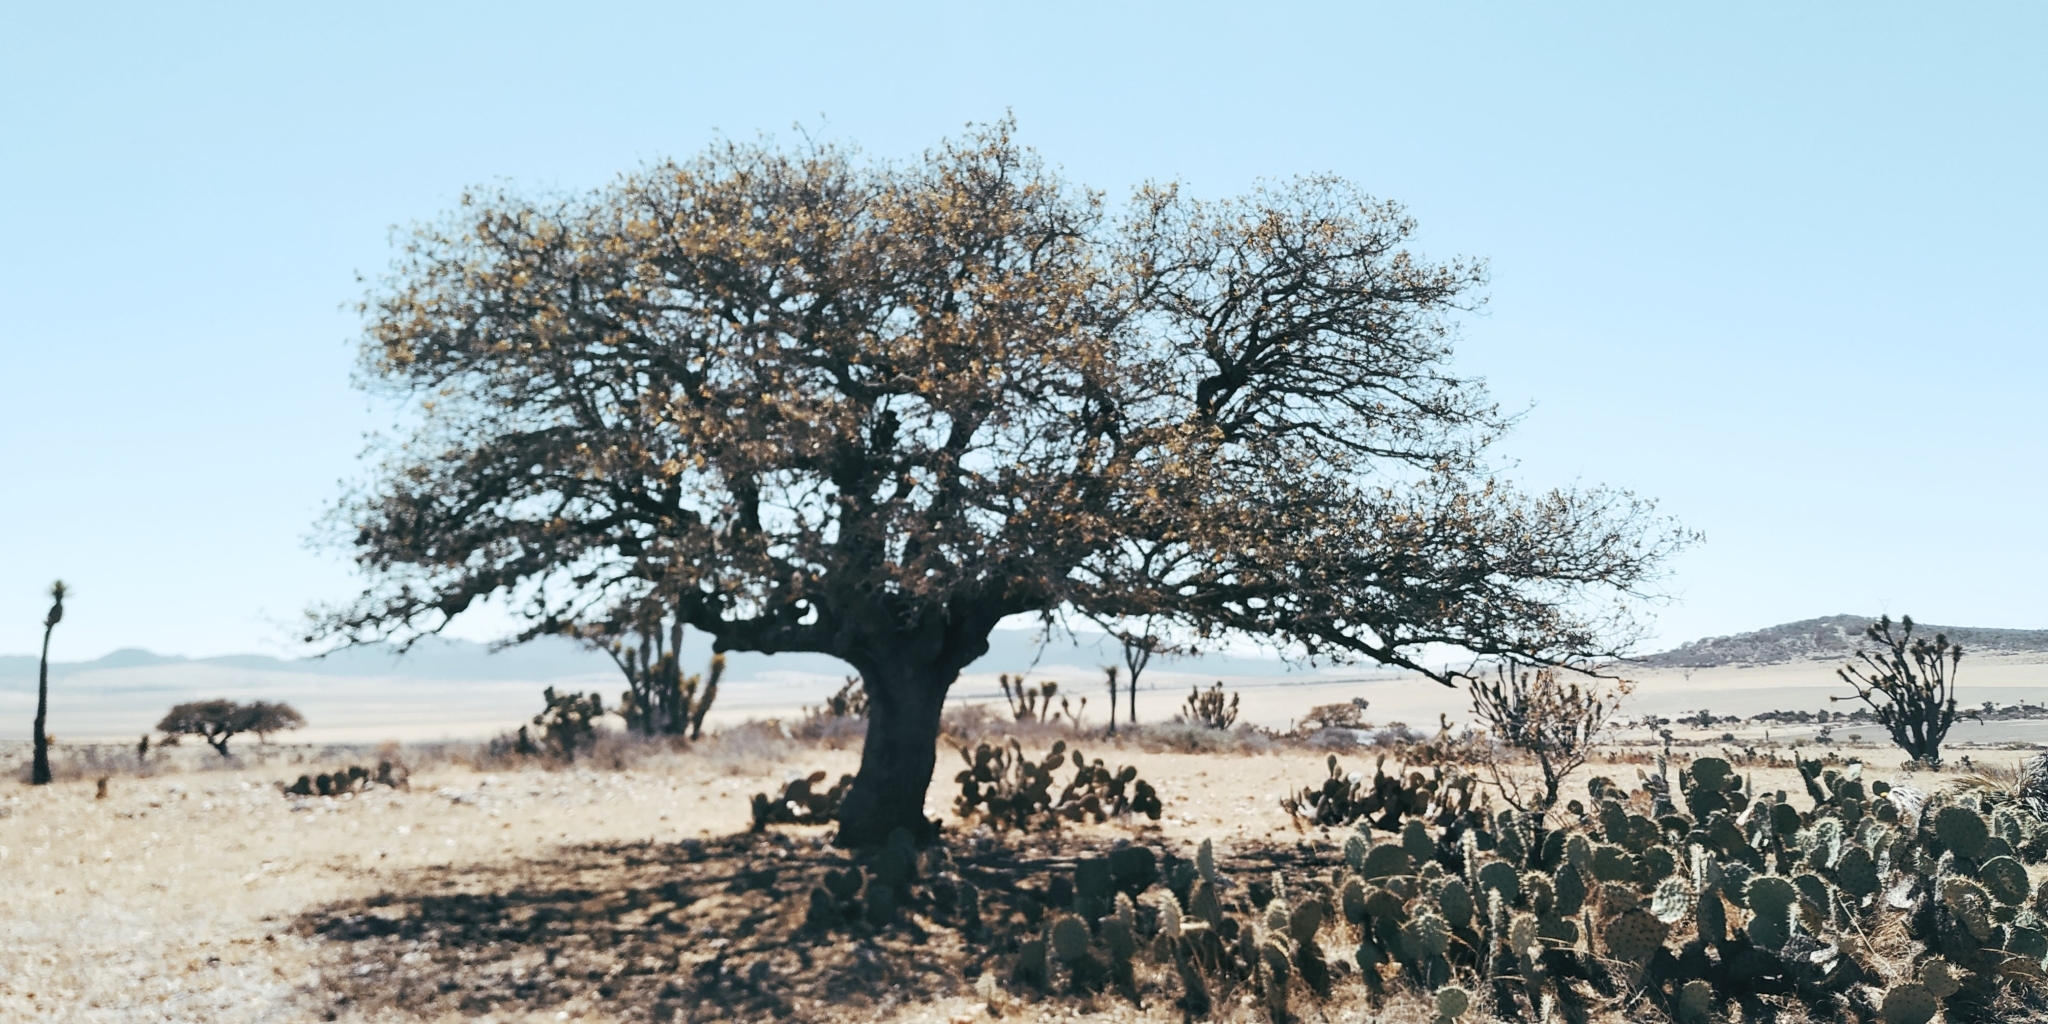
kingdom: Plantae
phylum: Tracheophyta
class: Magnoliopsida
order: Fagales
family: Fagaceae
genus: Quercus
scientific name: Quercus grisea
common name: Gray oak
